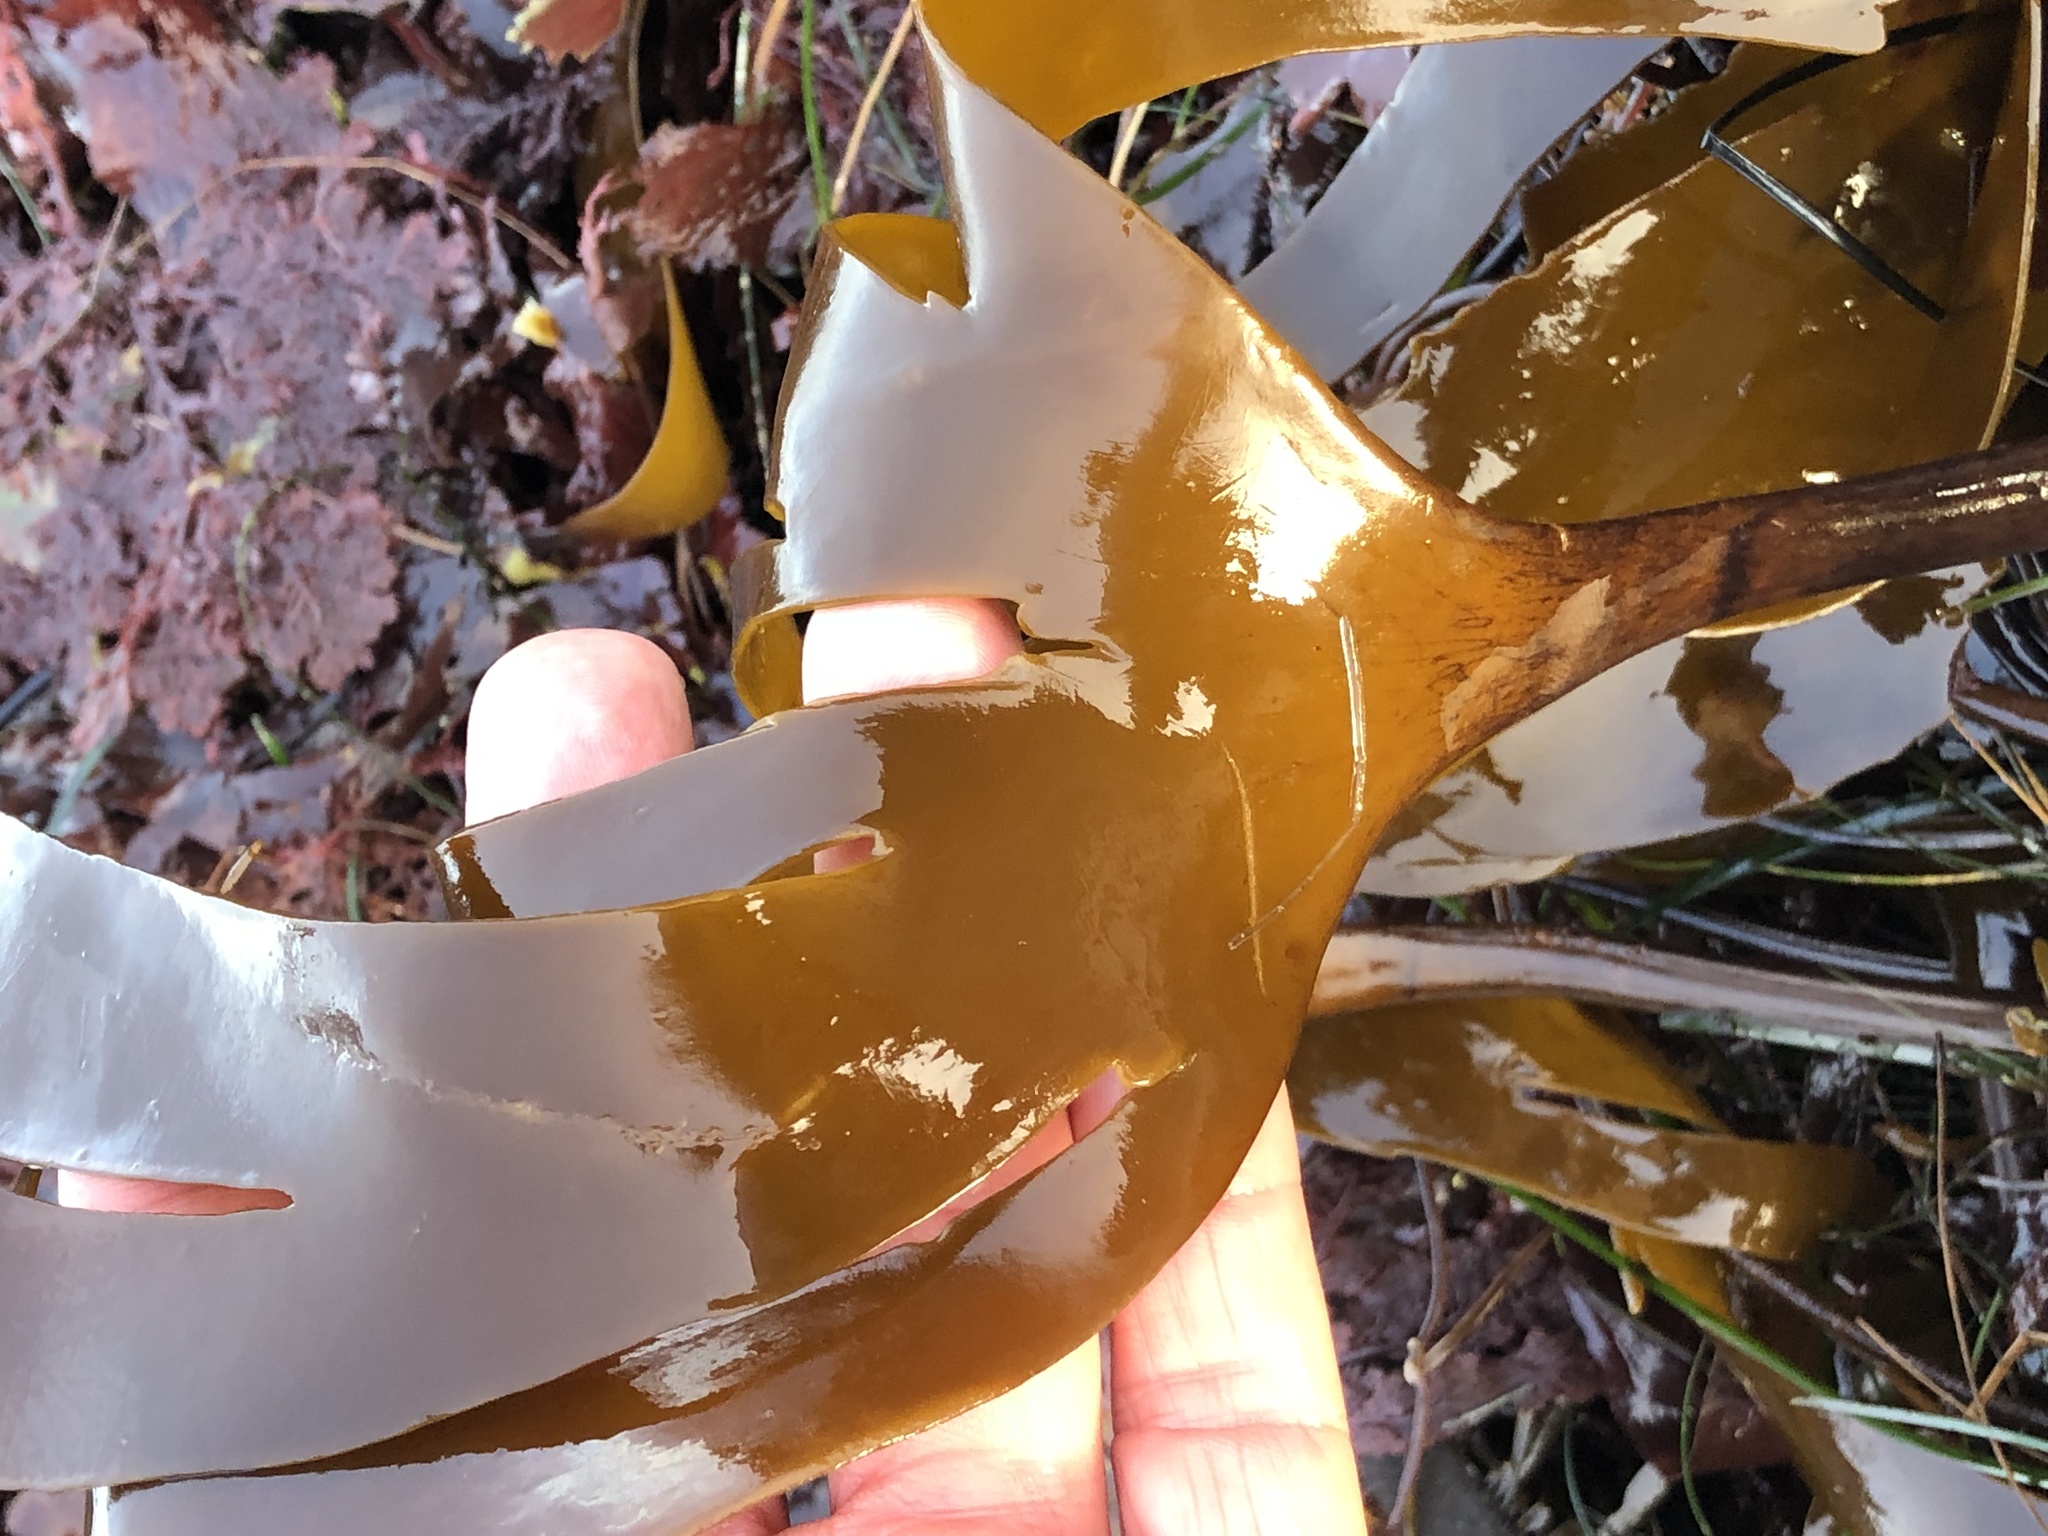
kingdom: Chromista
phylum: Ochrophyta
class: Phaeophyceae
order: Laminariales
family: Laminariaceae
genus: Laminaria
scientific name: Laminaria setchellii
